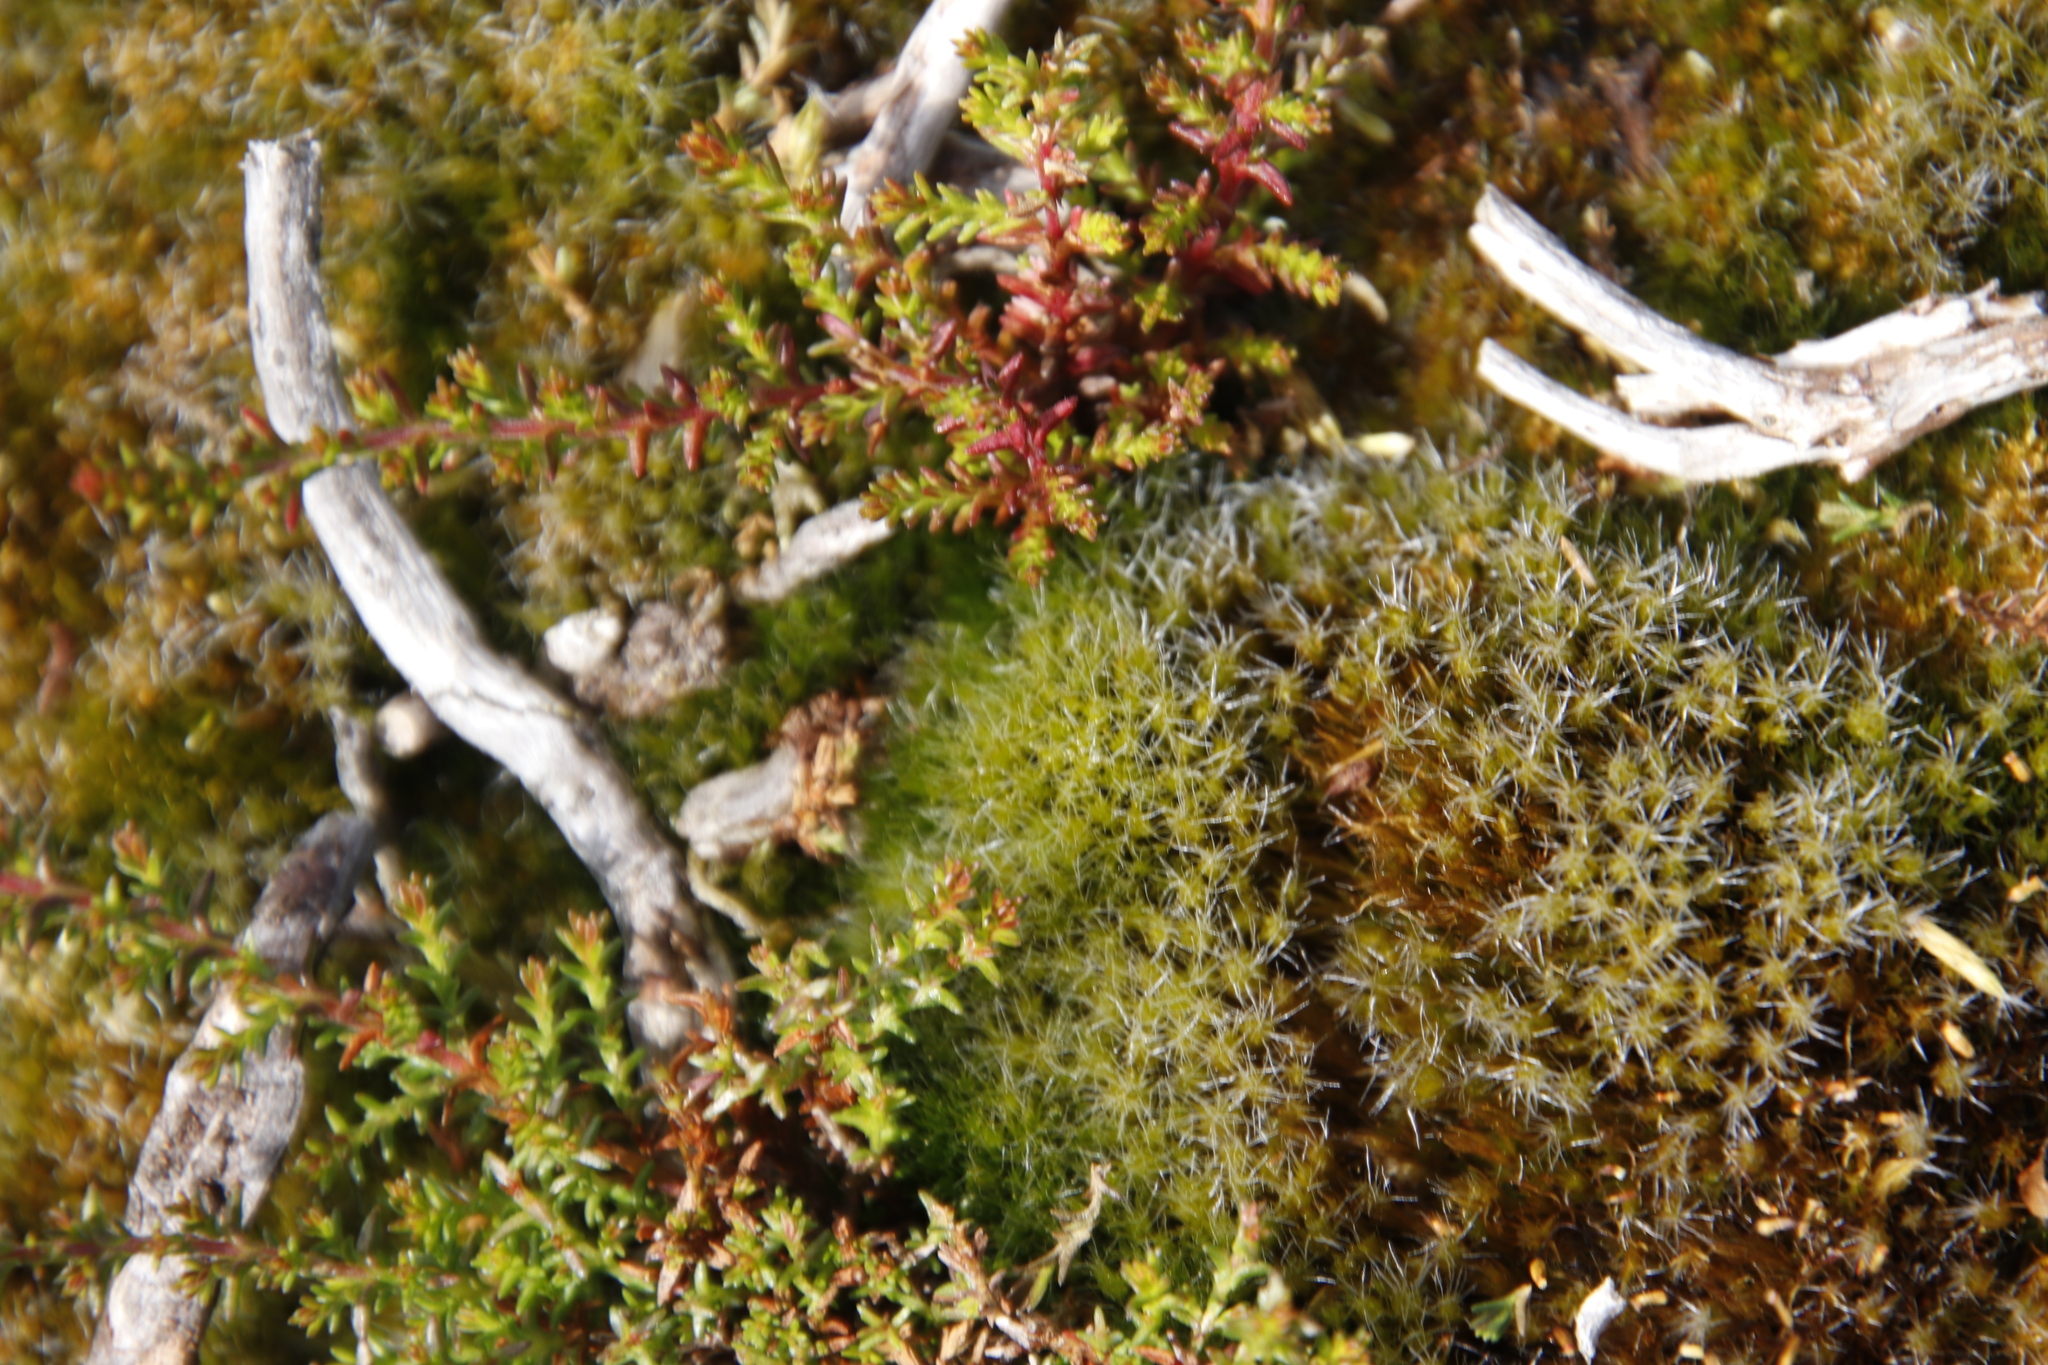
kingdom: Plantae
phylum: Bryophyta
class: Bryopsida
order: Dicranales
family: Leucobryaceae
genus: Campylopus
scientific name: Campylopus introflexus
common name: Heath star moss
